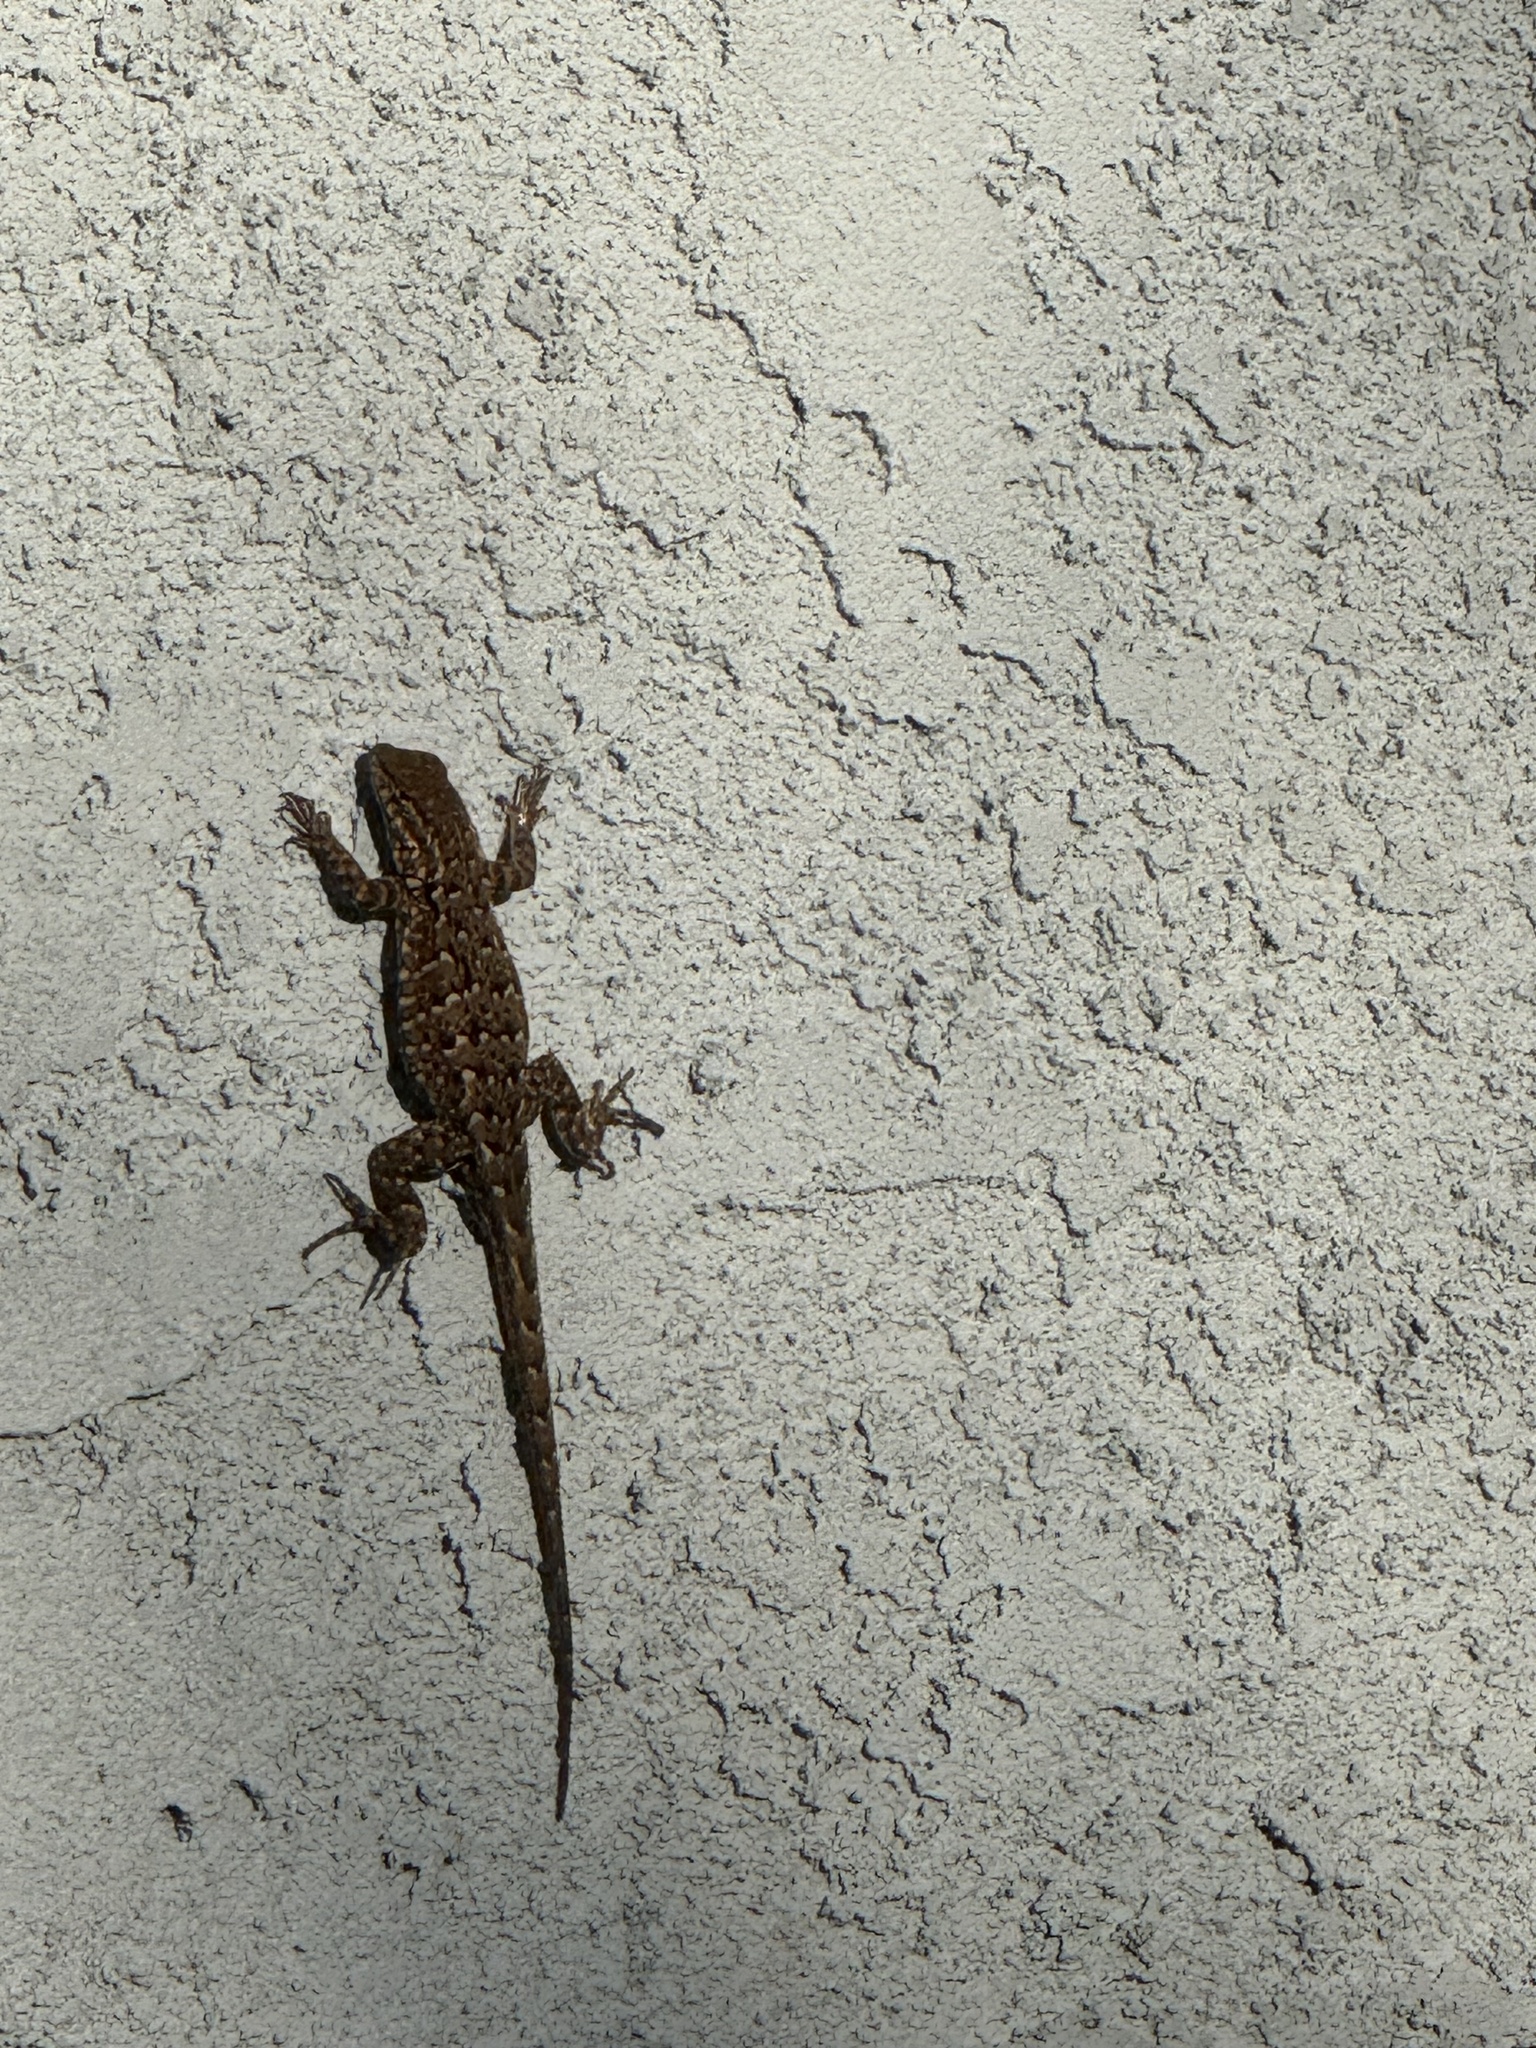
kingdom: Animalia
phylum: Chordata
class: Squamata
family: Phrynosomatidae
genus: Uta
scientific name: Uta stansburiana
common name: Side-blotched lizard
